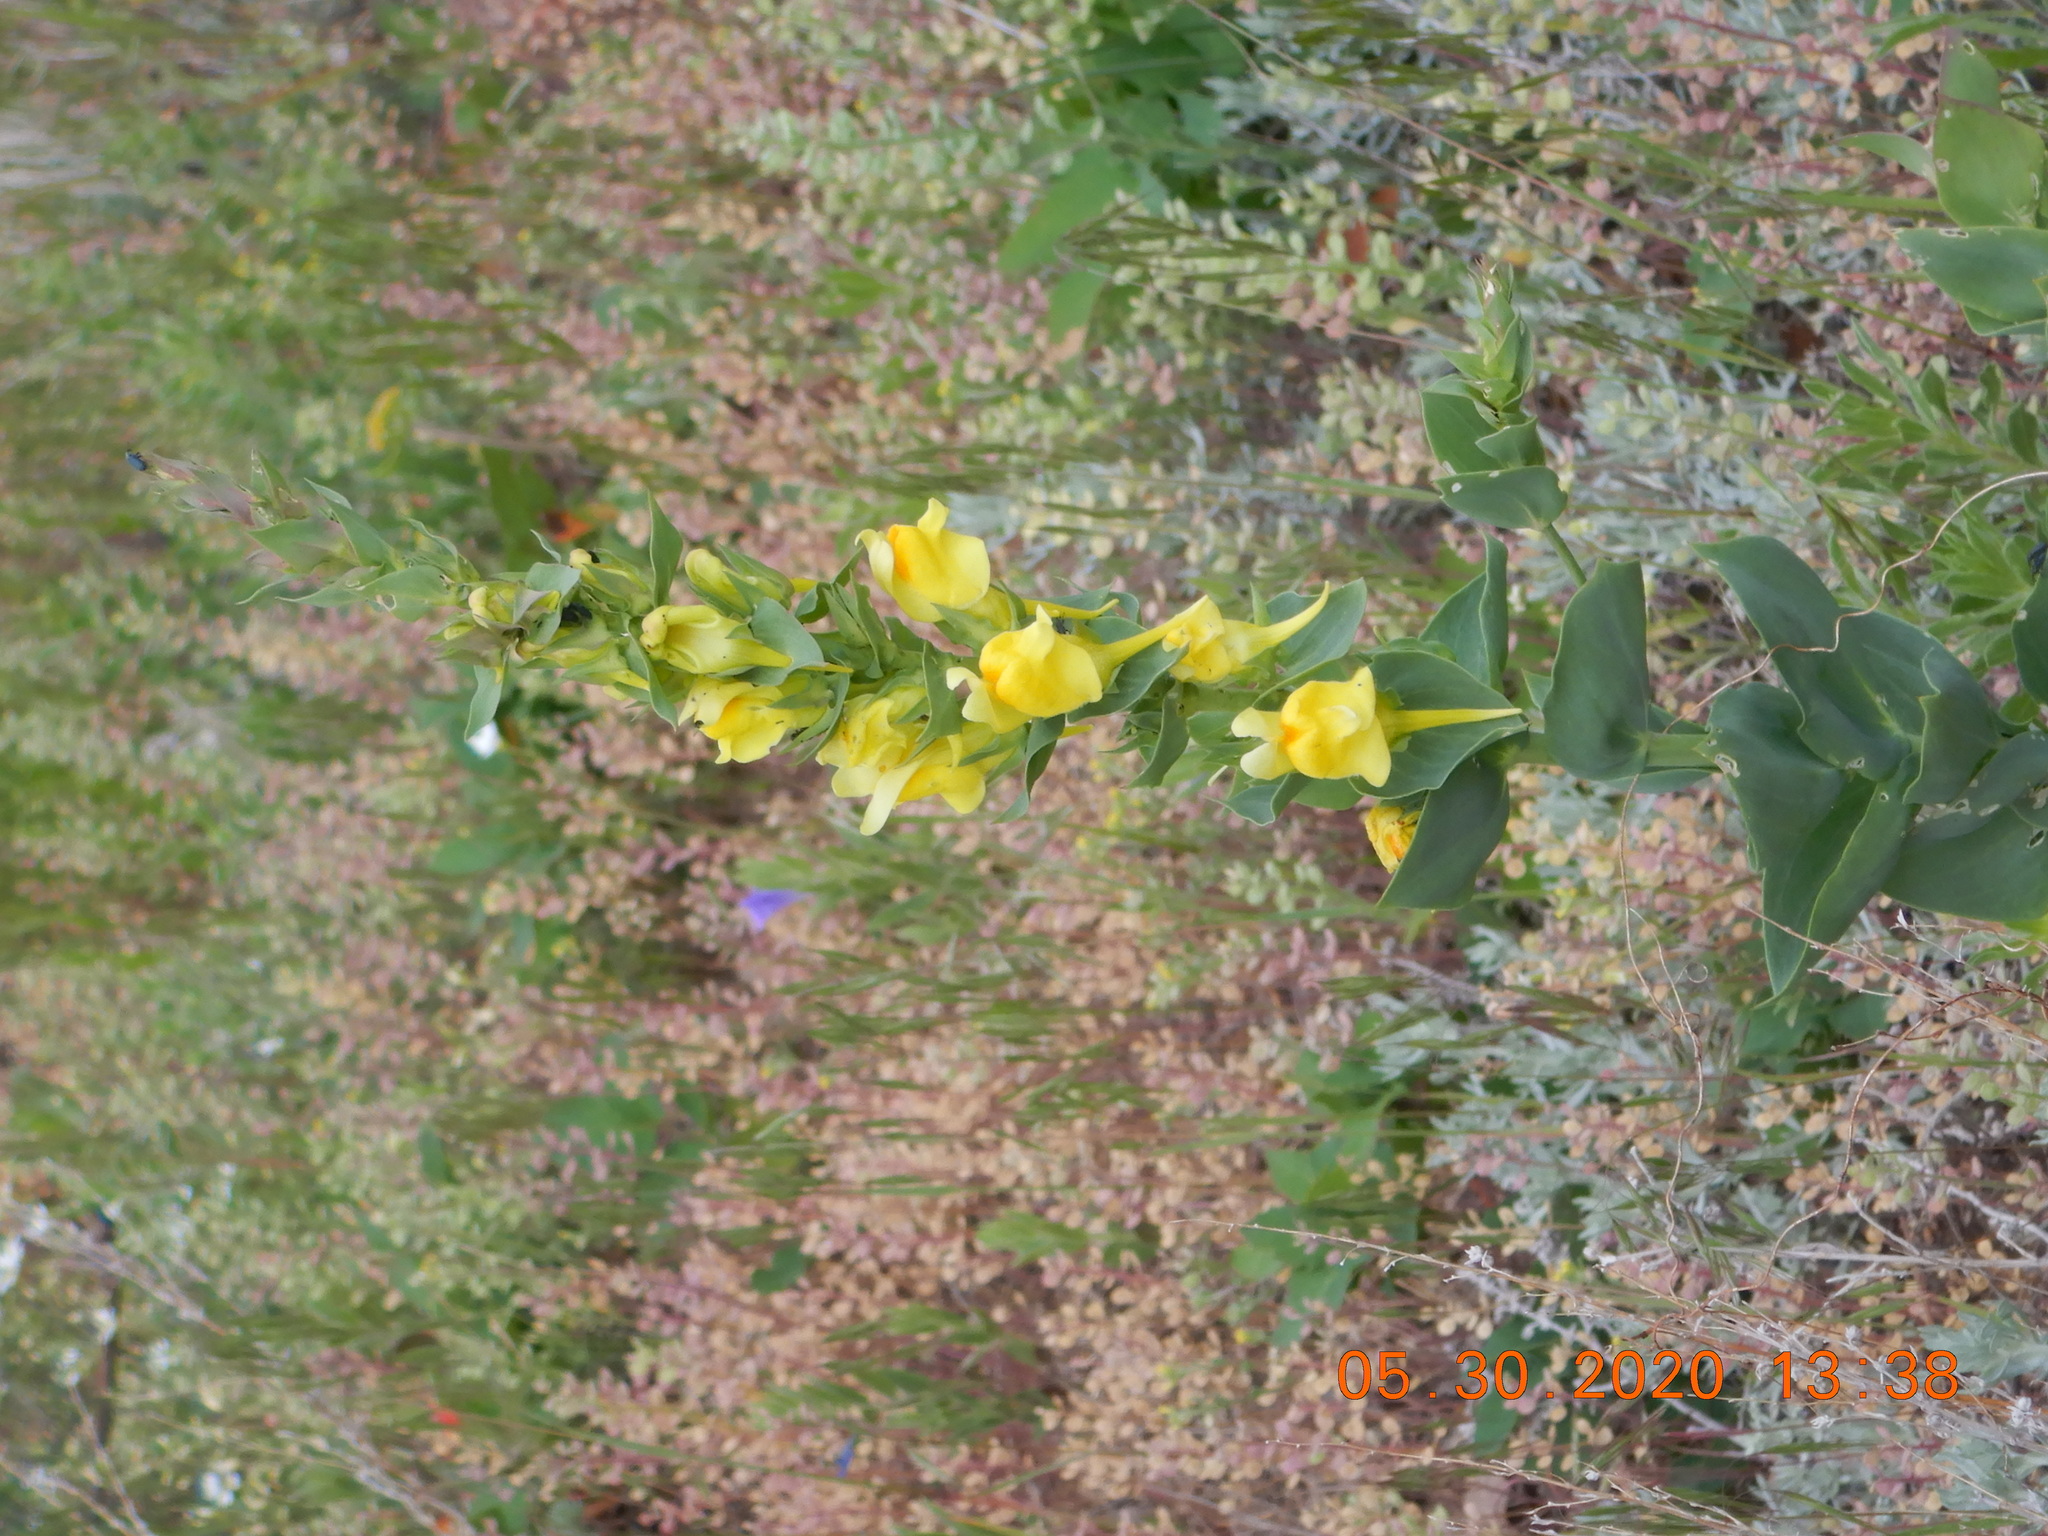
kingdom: Plantae
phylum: Tracheophyta
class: Magnoliopsida
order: Lamiales
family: Plantaginaceae
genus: Linaria
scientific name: Linaria dalmatica
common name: Dalmatian toadflax
